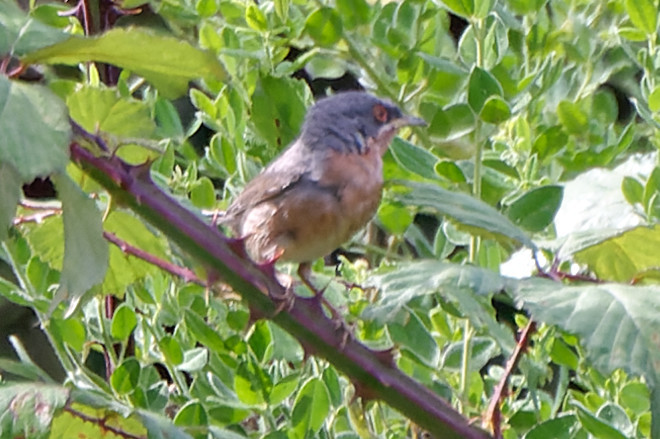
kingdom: Animalia
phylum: Chordata
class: Aves
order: Passeriformes
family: Sylviidae
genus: Curruca
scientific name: Curruca subalpina
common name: Moltoni's warbler
